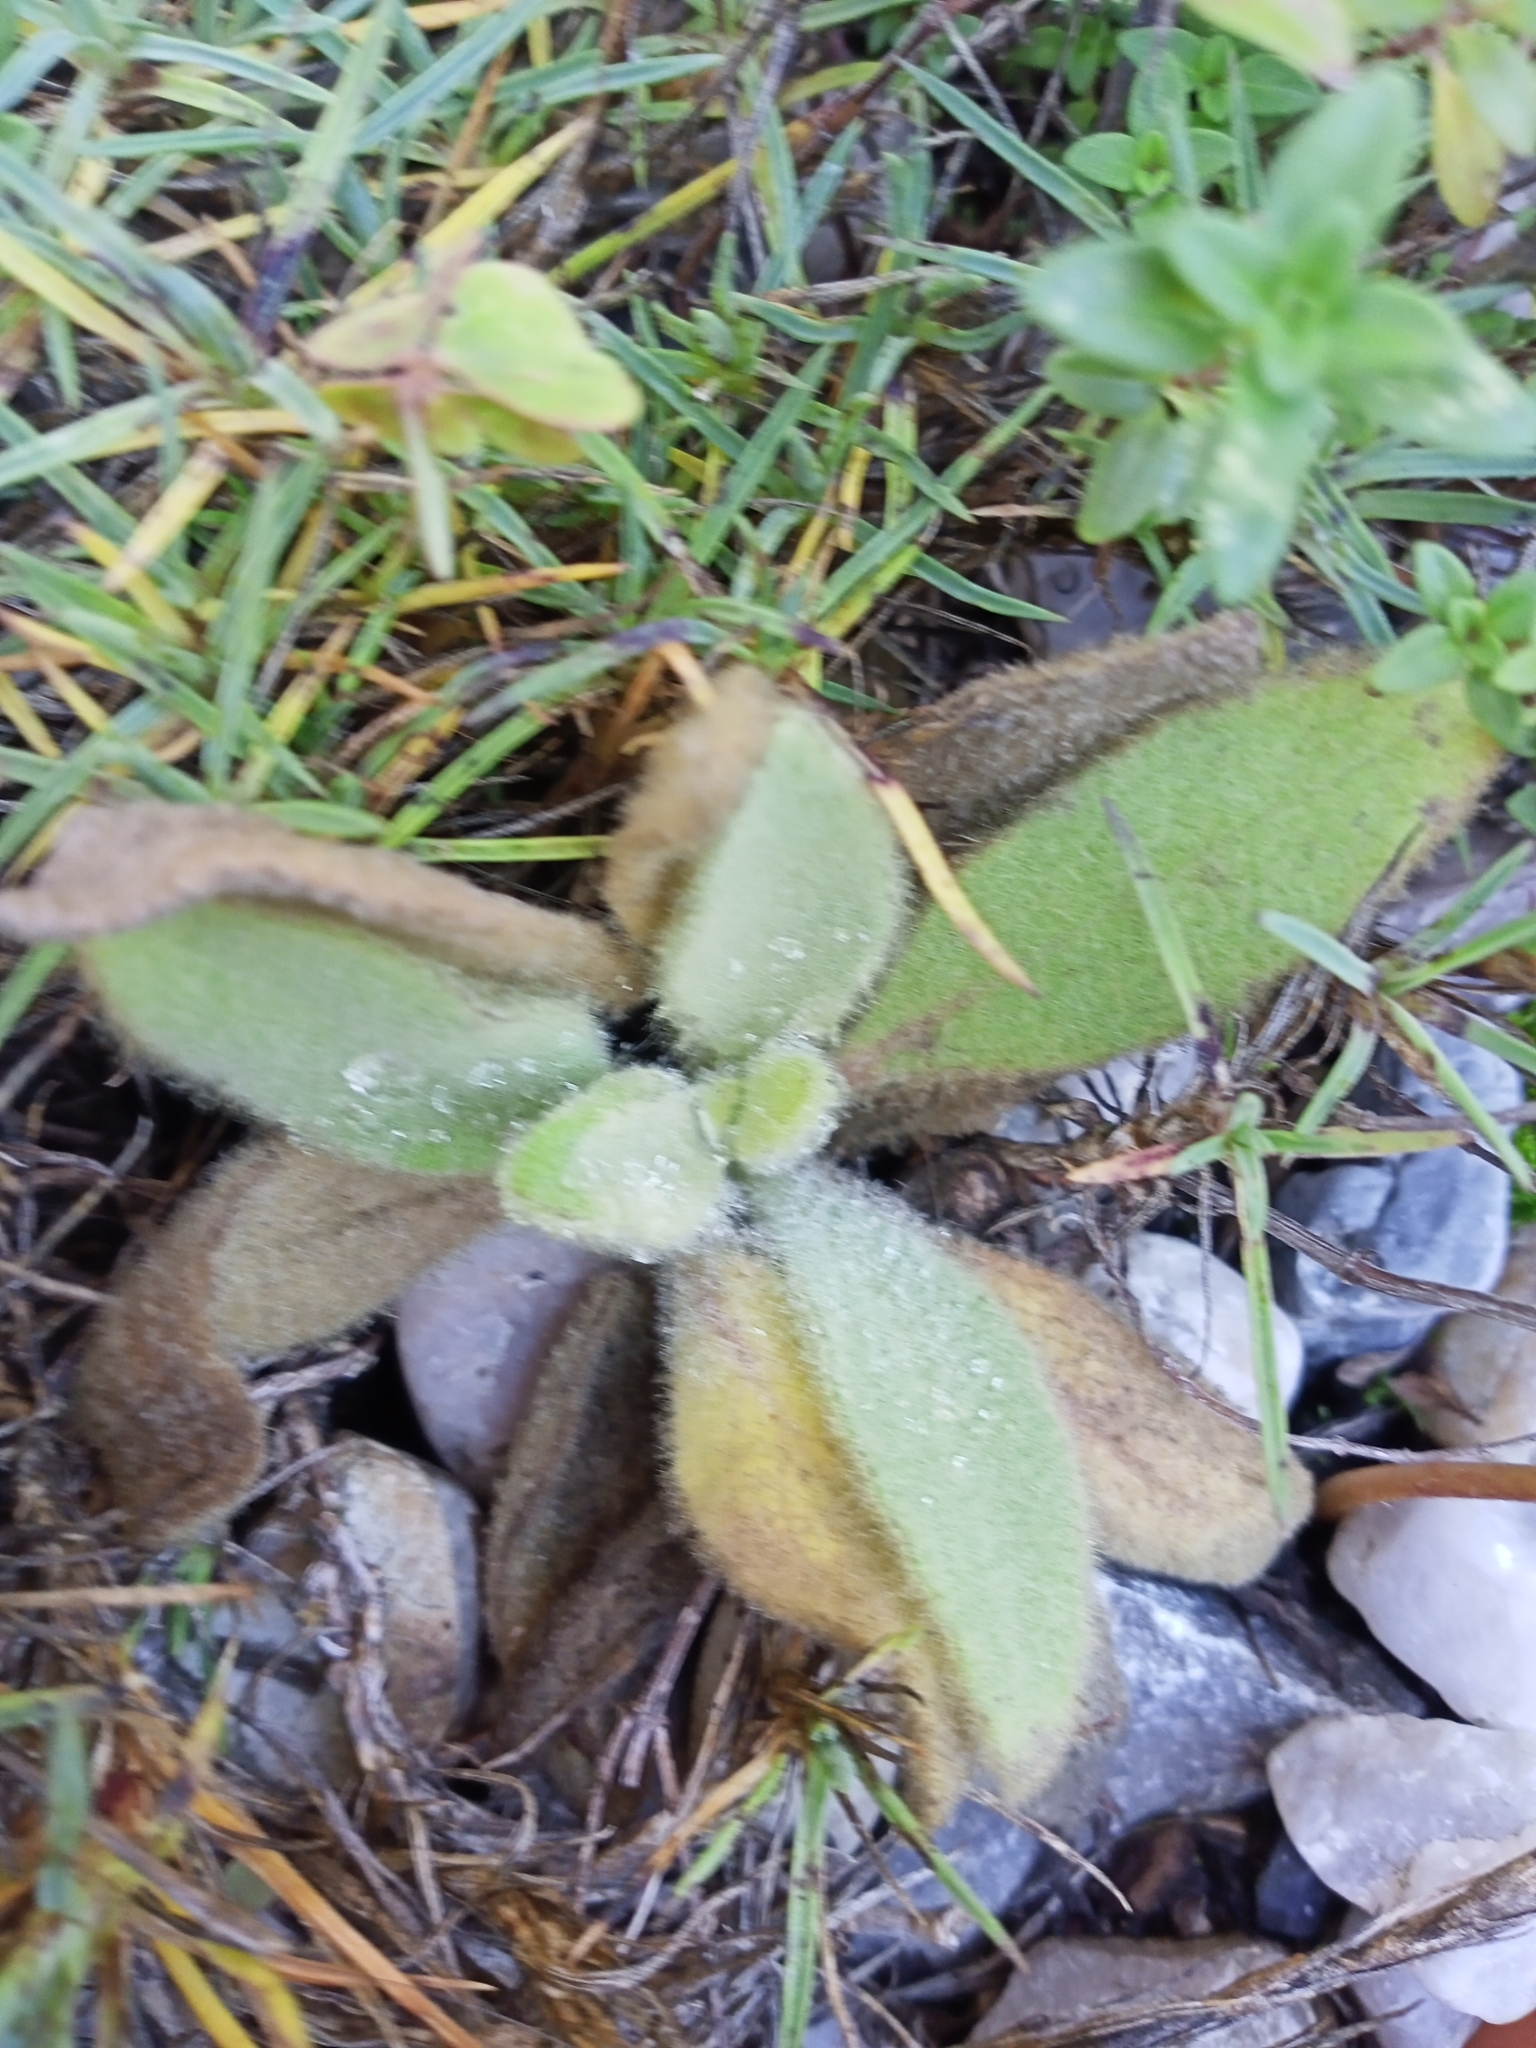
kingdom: Plantae
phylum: Tracheophyta
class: Magnoliopsida
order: Lamiales
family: Scrophulariaceae
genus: Verbascum
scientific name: Verbascum thapsus
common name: Common mullein
